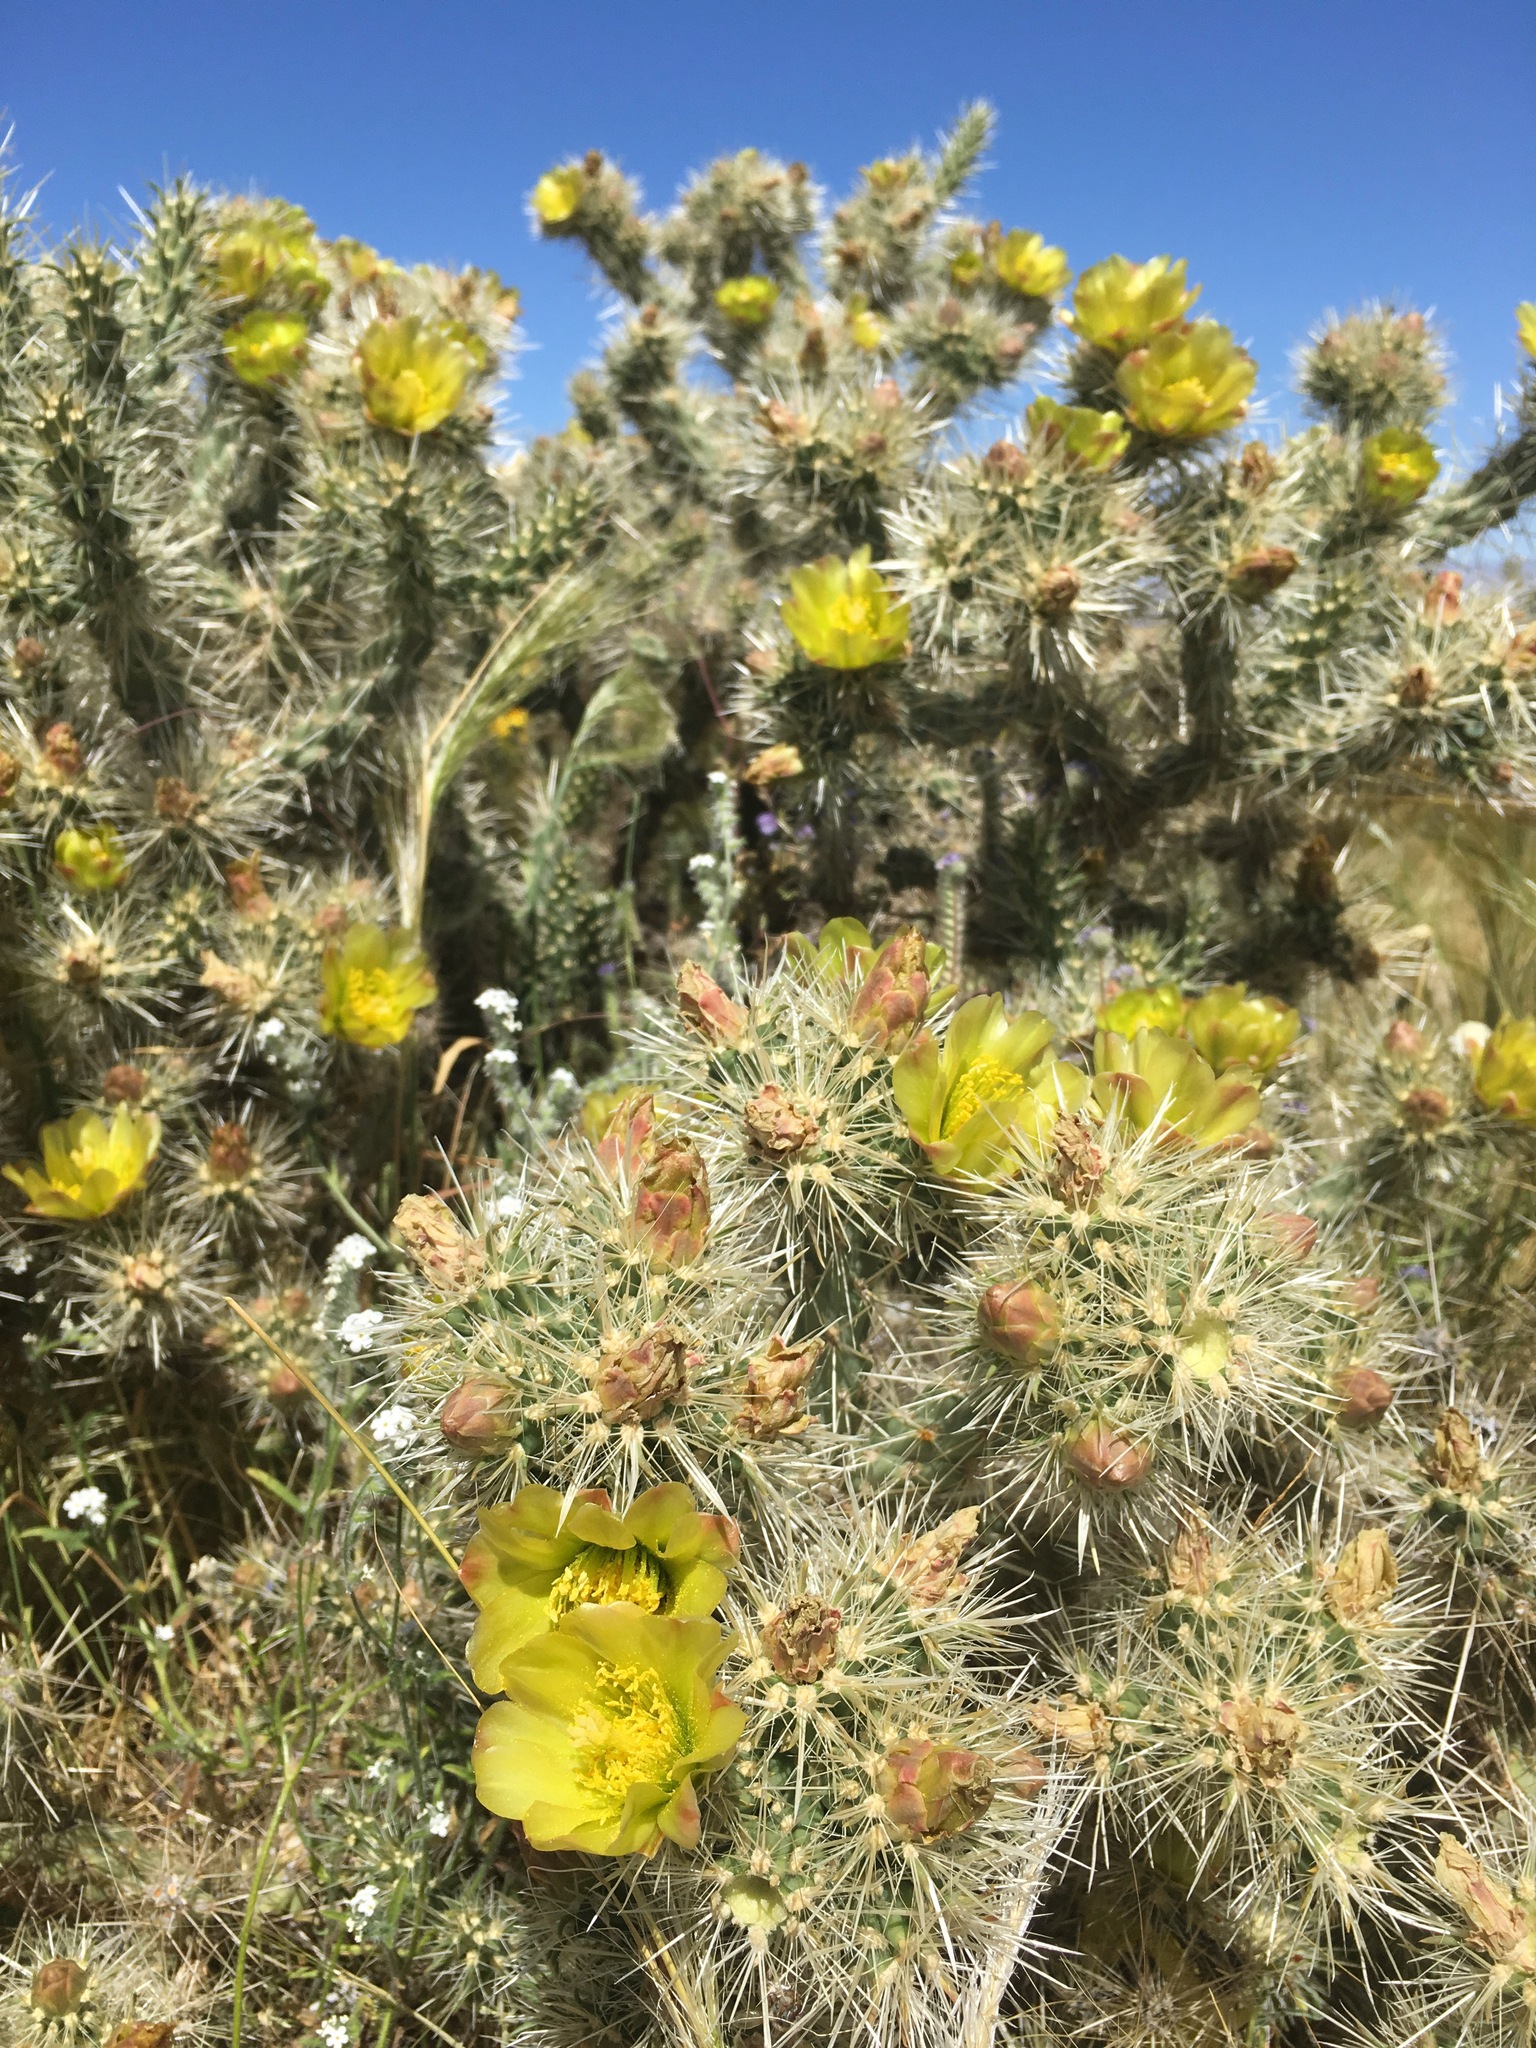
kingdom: Plantae
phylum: Tracheophyta
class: Magnoliopsida
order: Caryophyllales
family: Cactaceae
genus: Cylindropuntia
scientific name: Cylindropuntia echinocarpa
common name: Ground cholla
